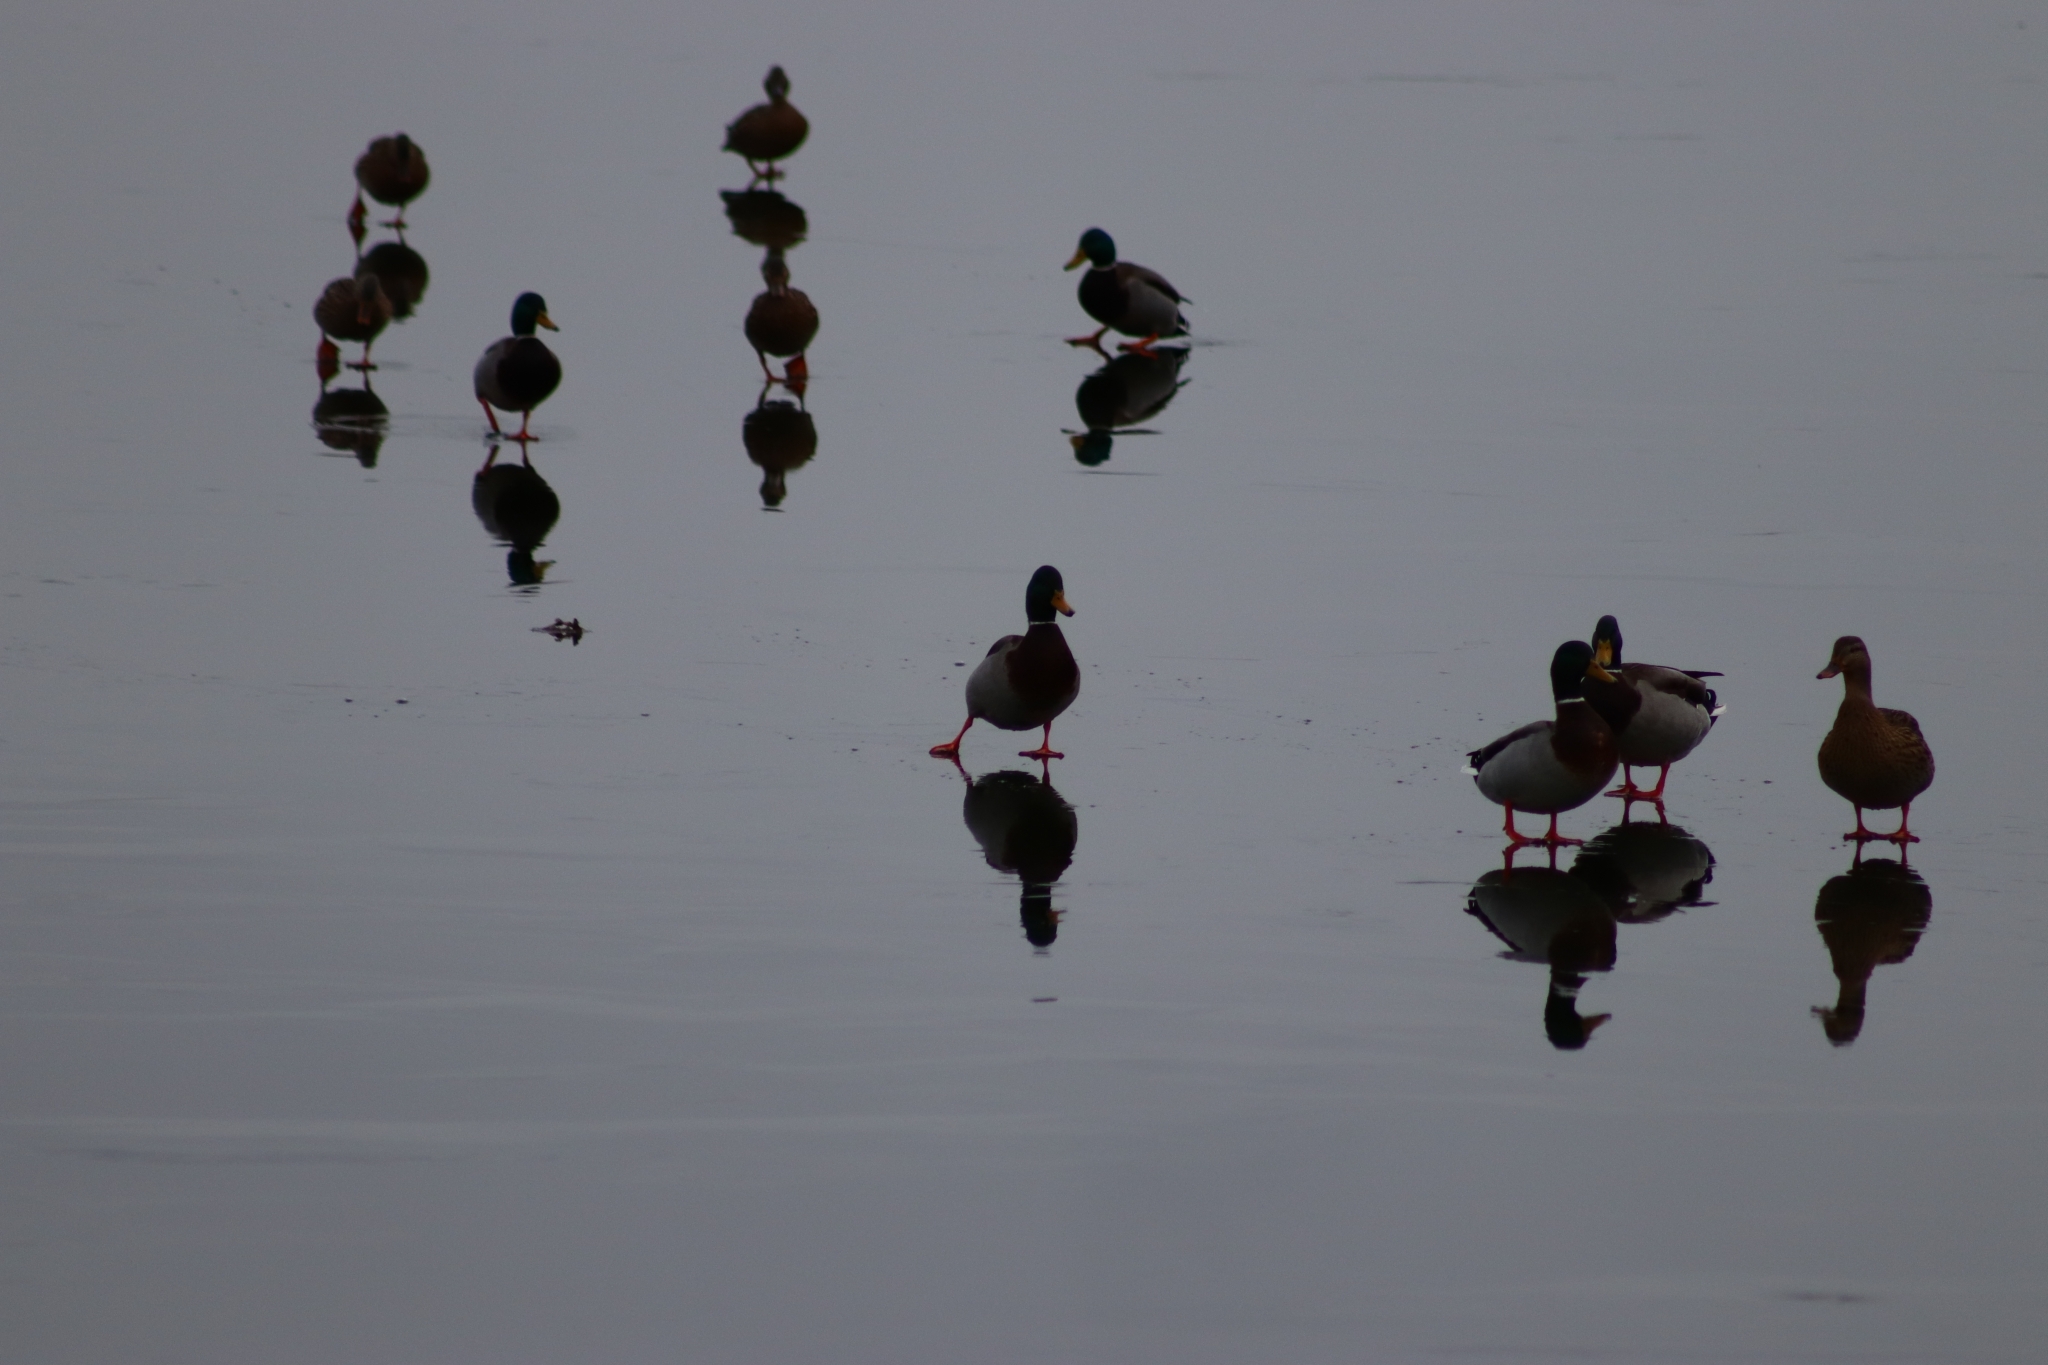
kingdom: Animalia
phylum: Chordata
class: Aves
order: Anseriformes
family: Anatidae
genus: Anas
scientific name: Anas platyrhynchos
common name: Mallard
